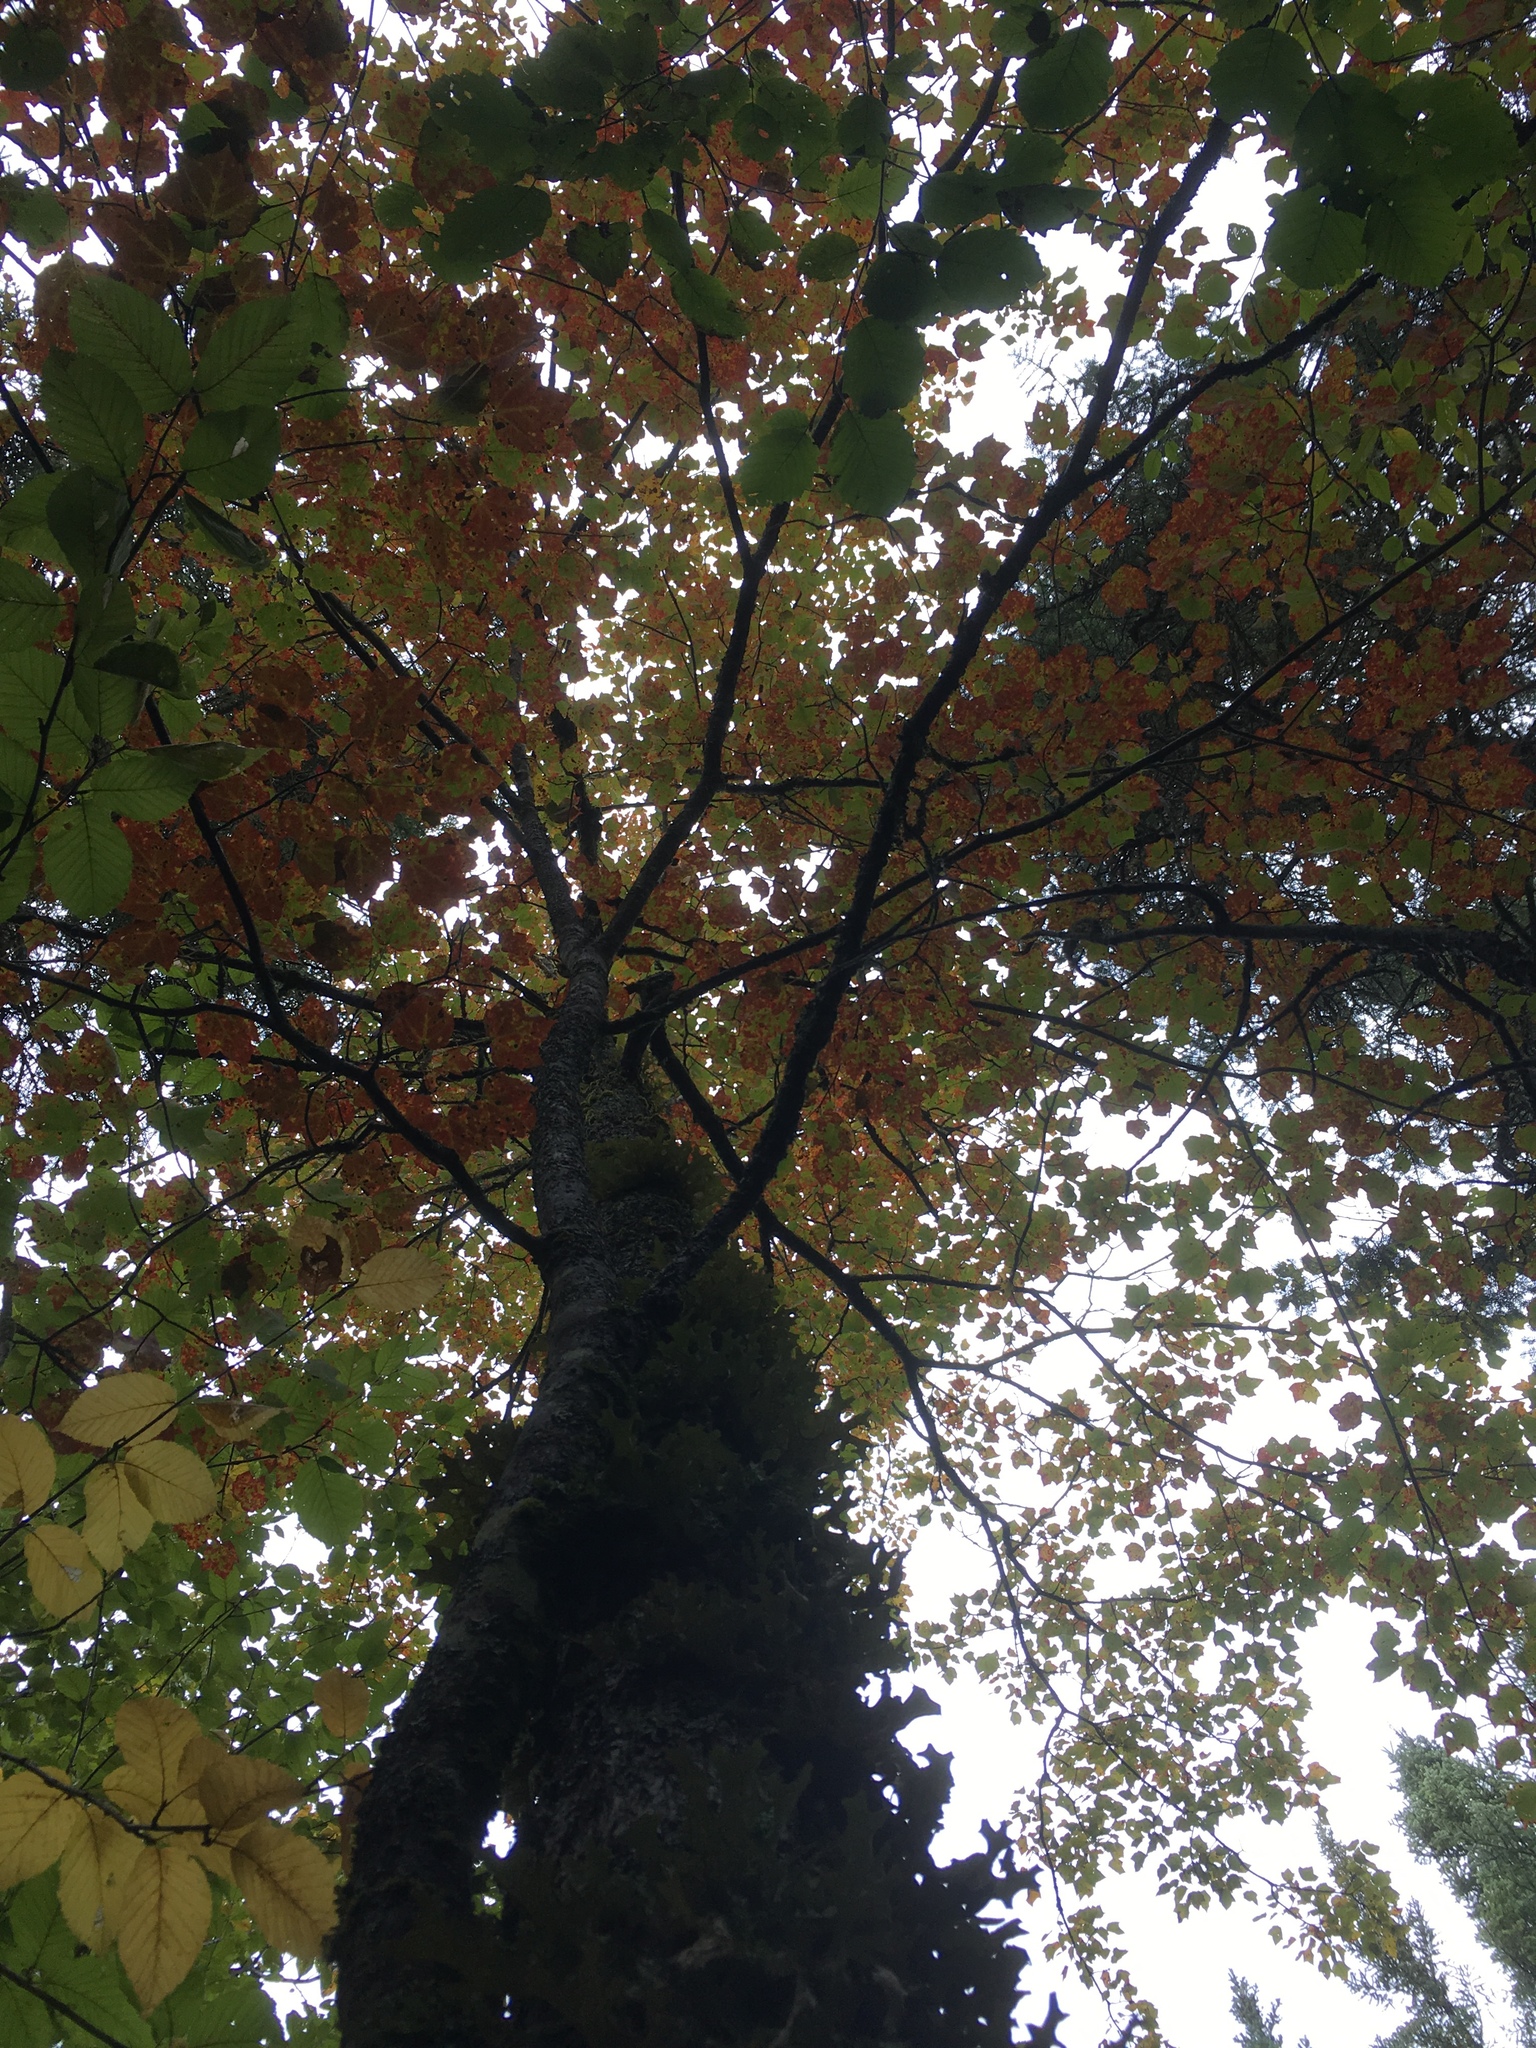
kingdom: Plantae
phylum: Tracheophyta
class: Magnoliopsida
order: Sapindales
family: Sapindaceae
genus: Acer
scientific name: Acer rubrum
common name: Red maple
